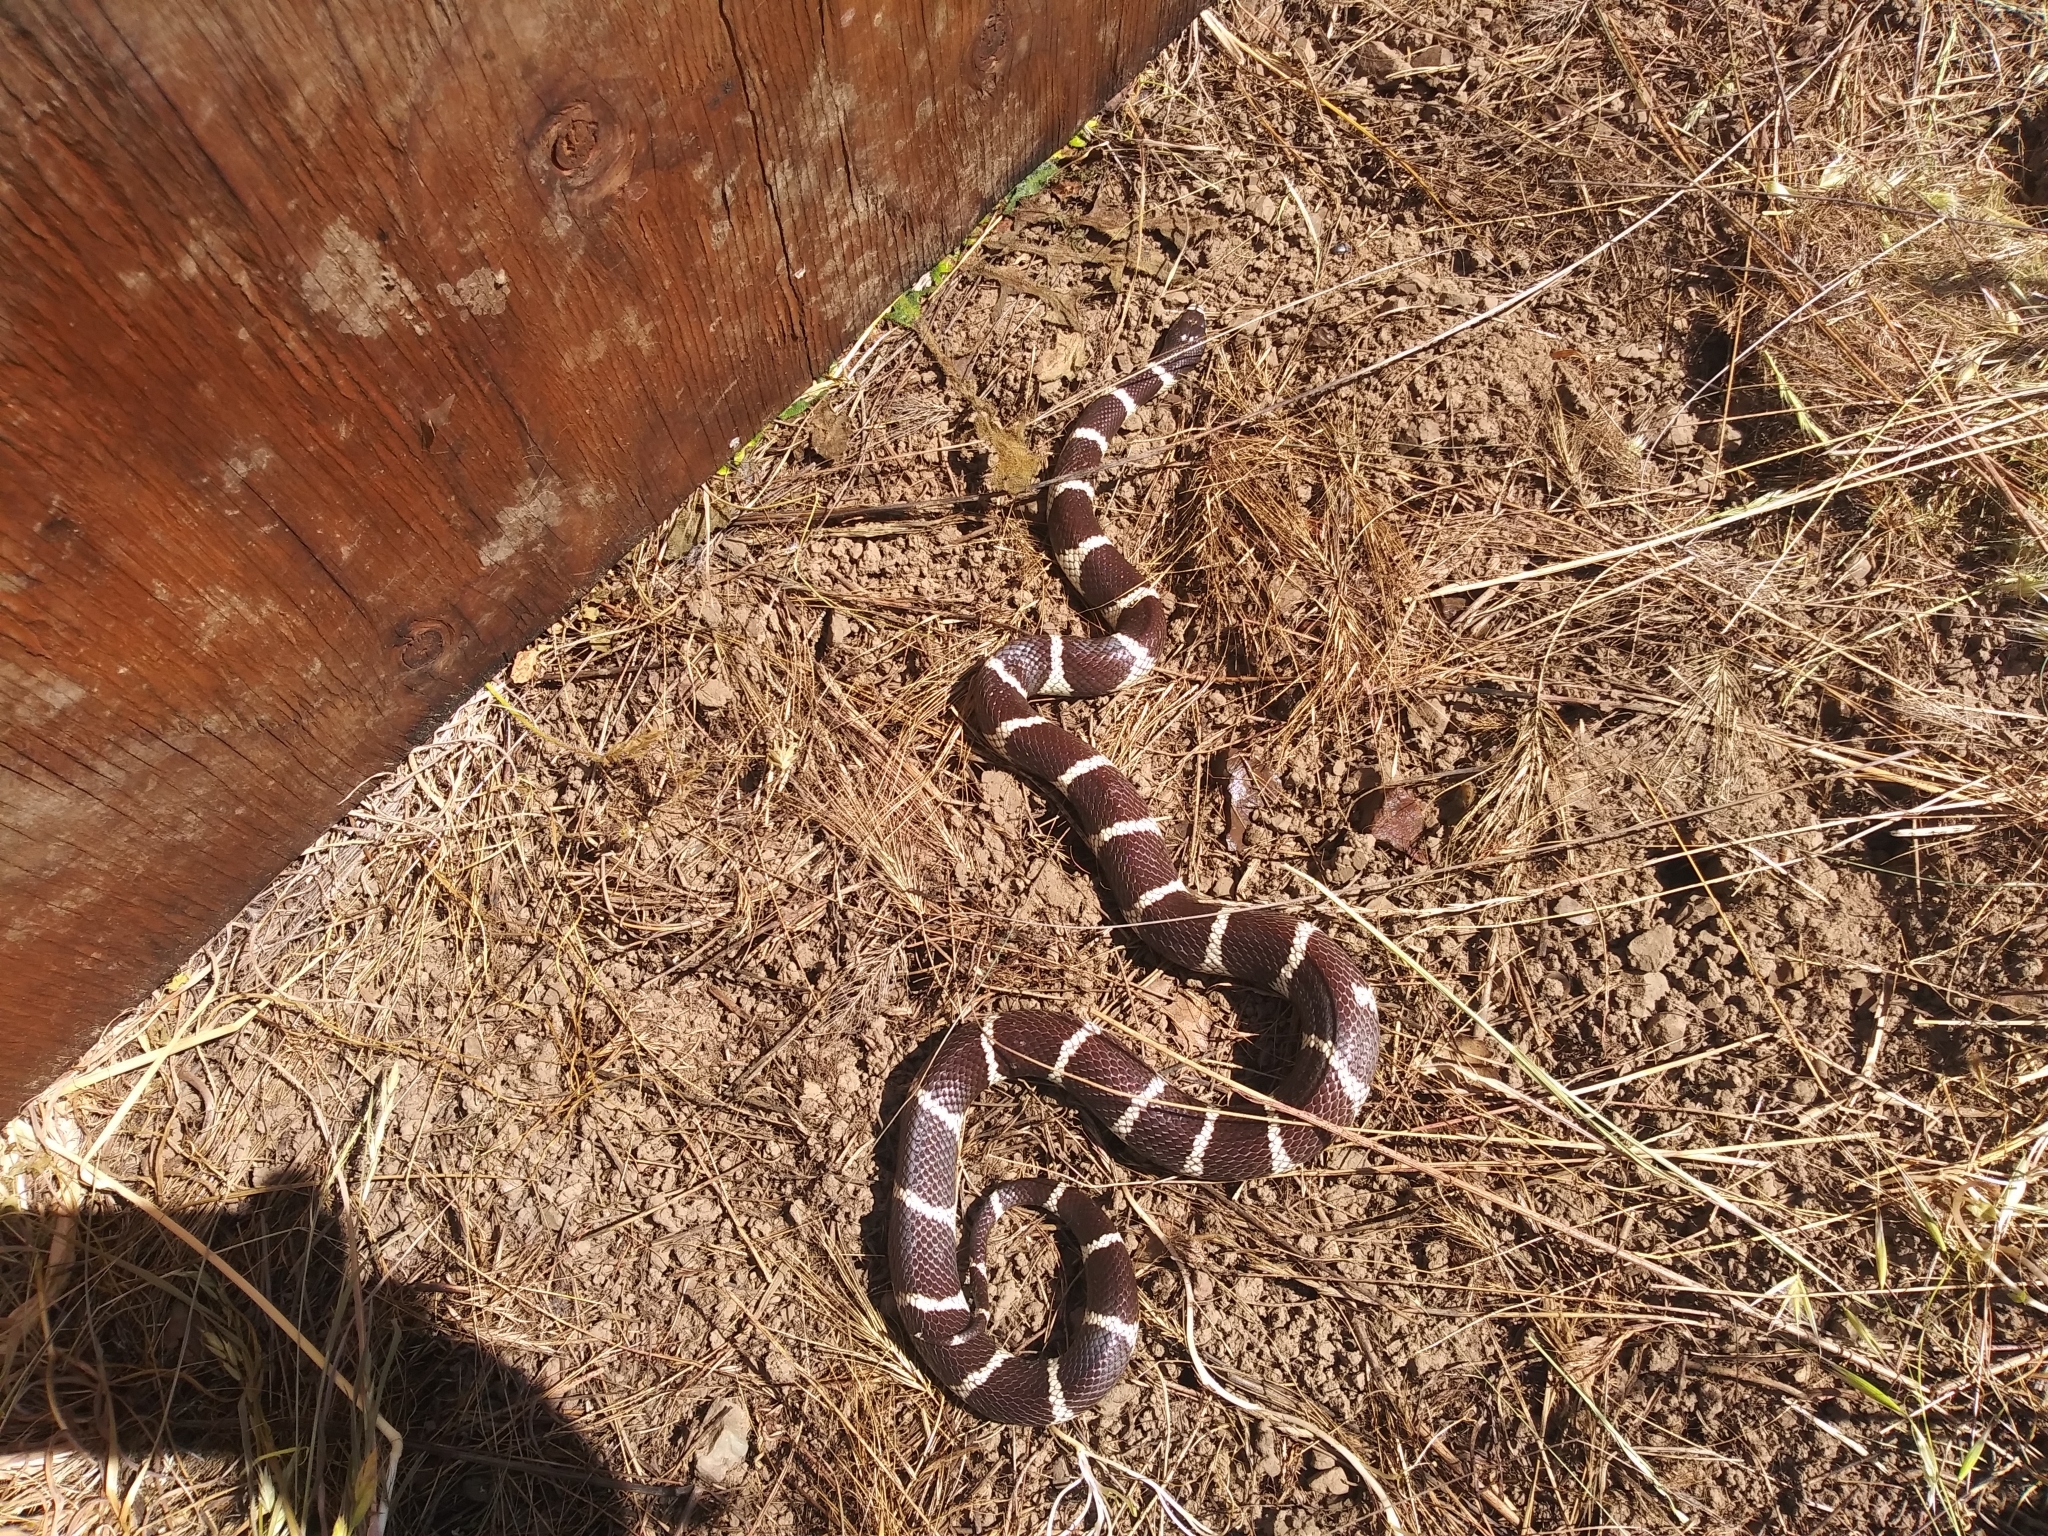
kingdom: Animalia
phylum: Chordata
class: Squamata
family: Colubridae
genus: Lampropeltis
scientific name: Lampropeltis californiae
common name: California kingsnake
